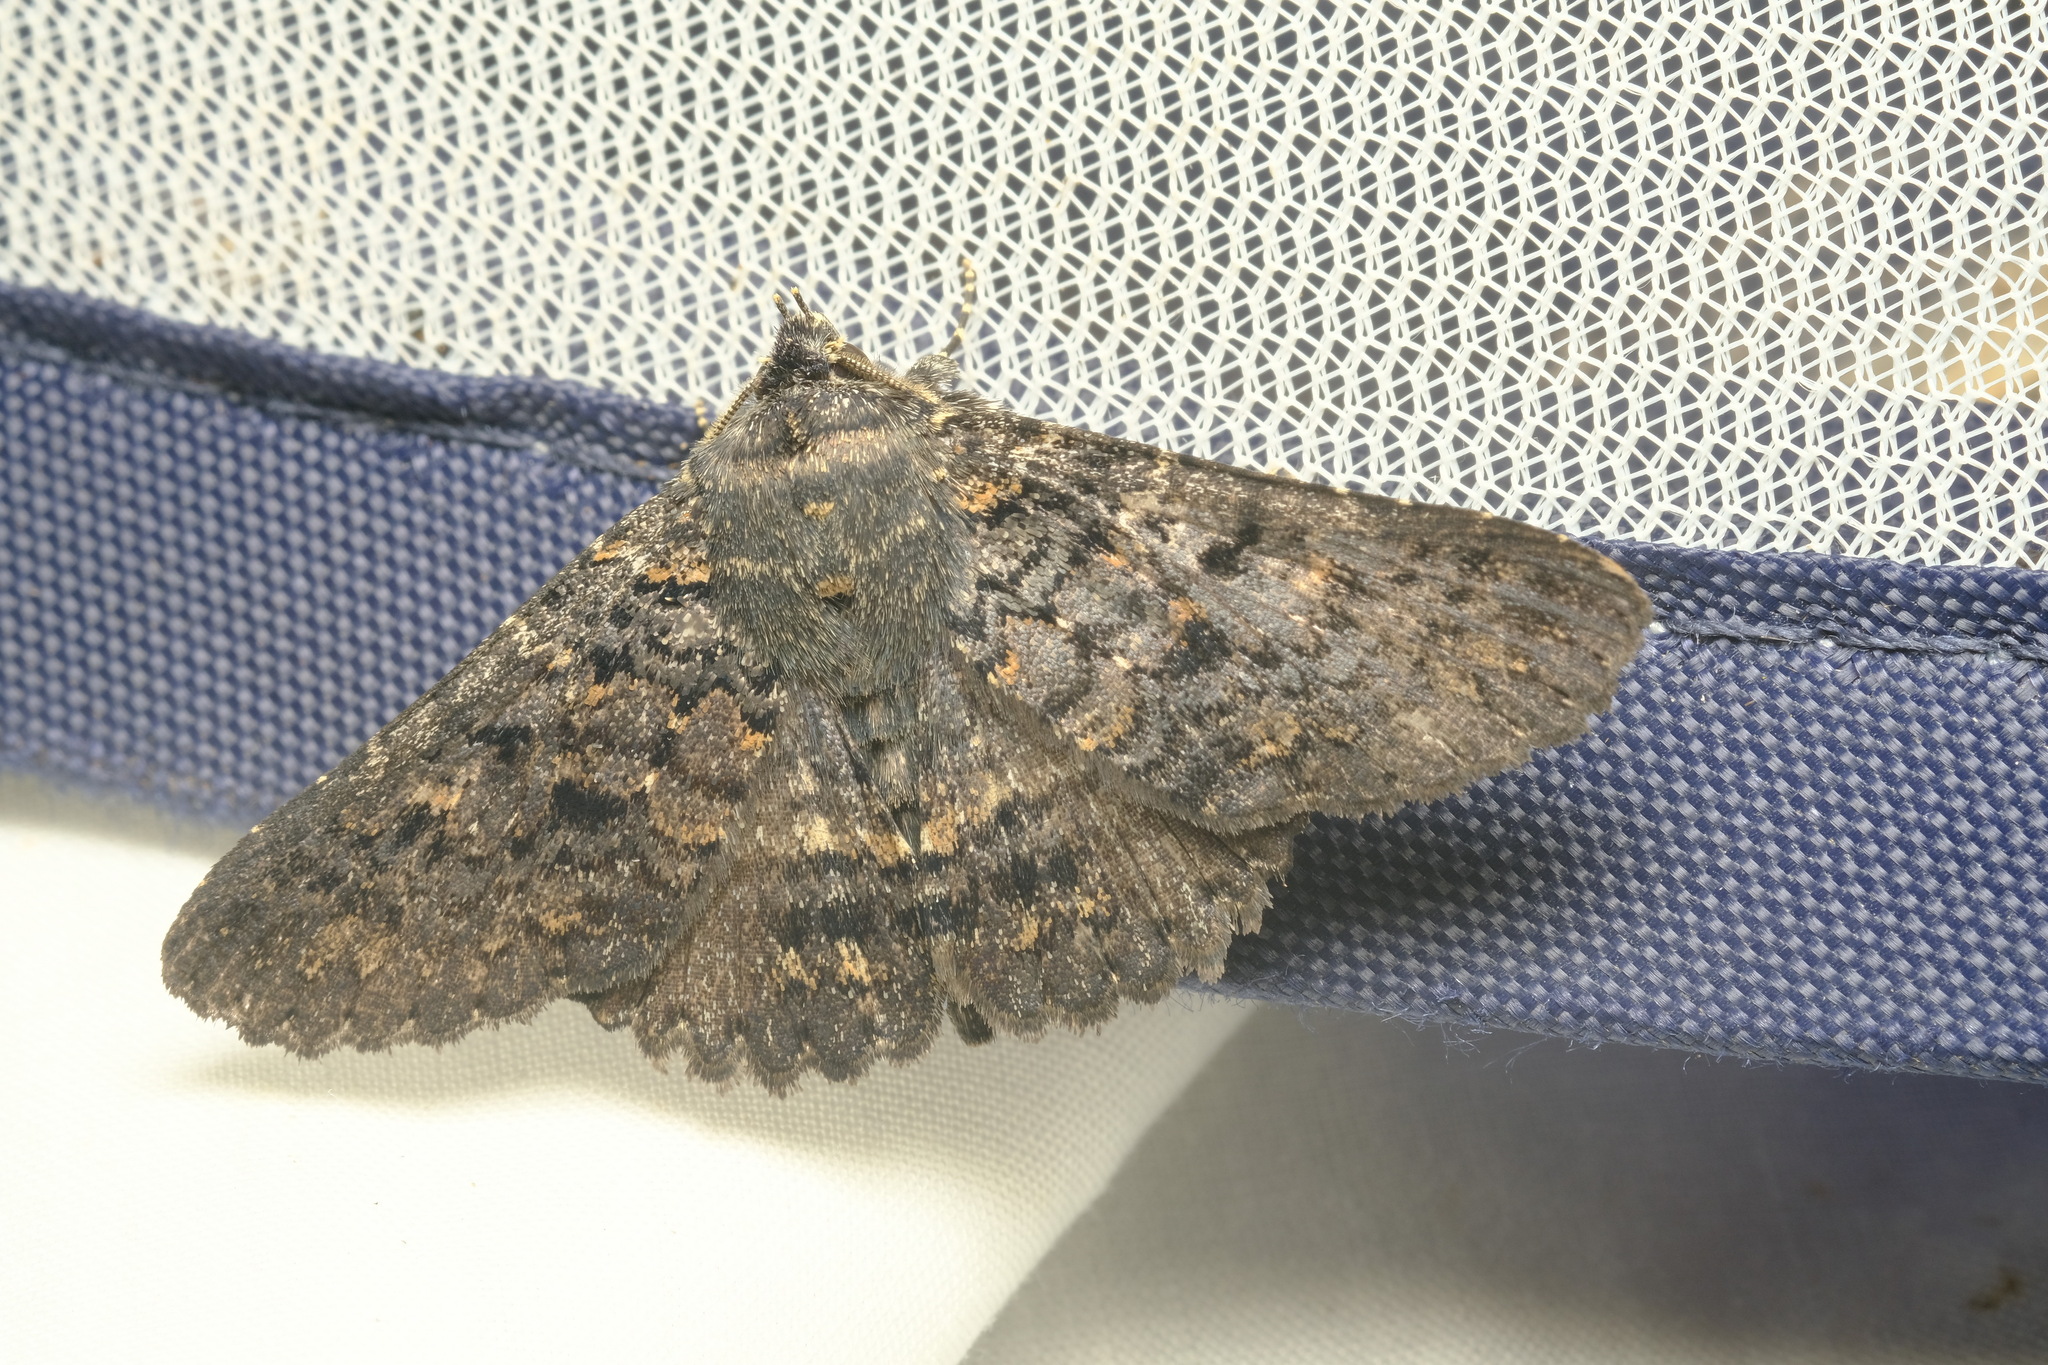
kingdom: Animalia
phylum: Arthropoda
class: Insecta
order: Lepidoptera
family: Erebidae
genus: Praxis
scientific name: Praxis edwardsii
